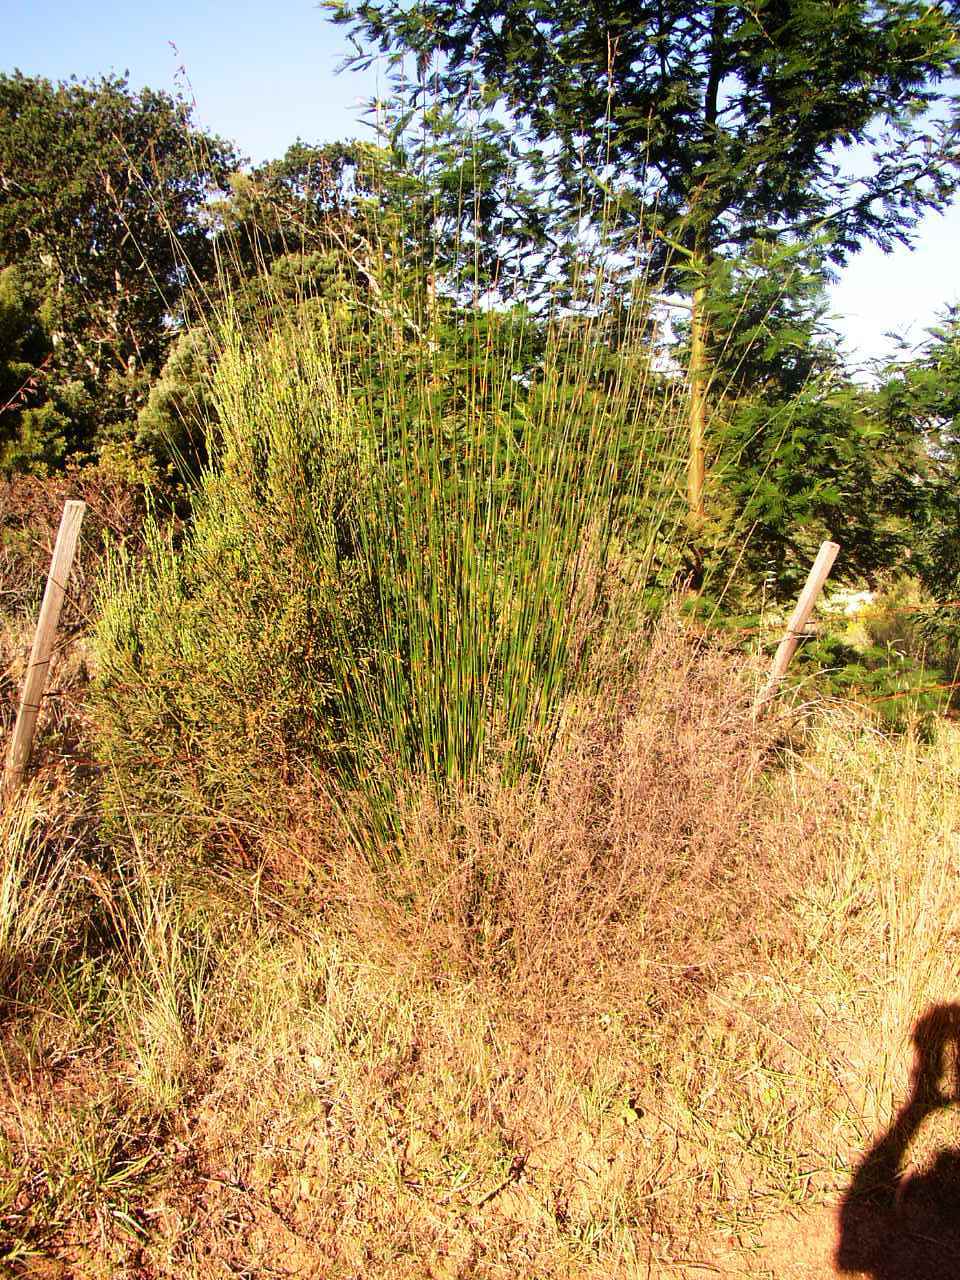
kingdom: Plantae
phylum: Tracheophyta
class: Liliopsida
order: Poales
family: Restionaceae
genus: Thamnochortus
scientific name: Thamnochortus insignis
